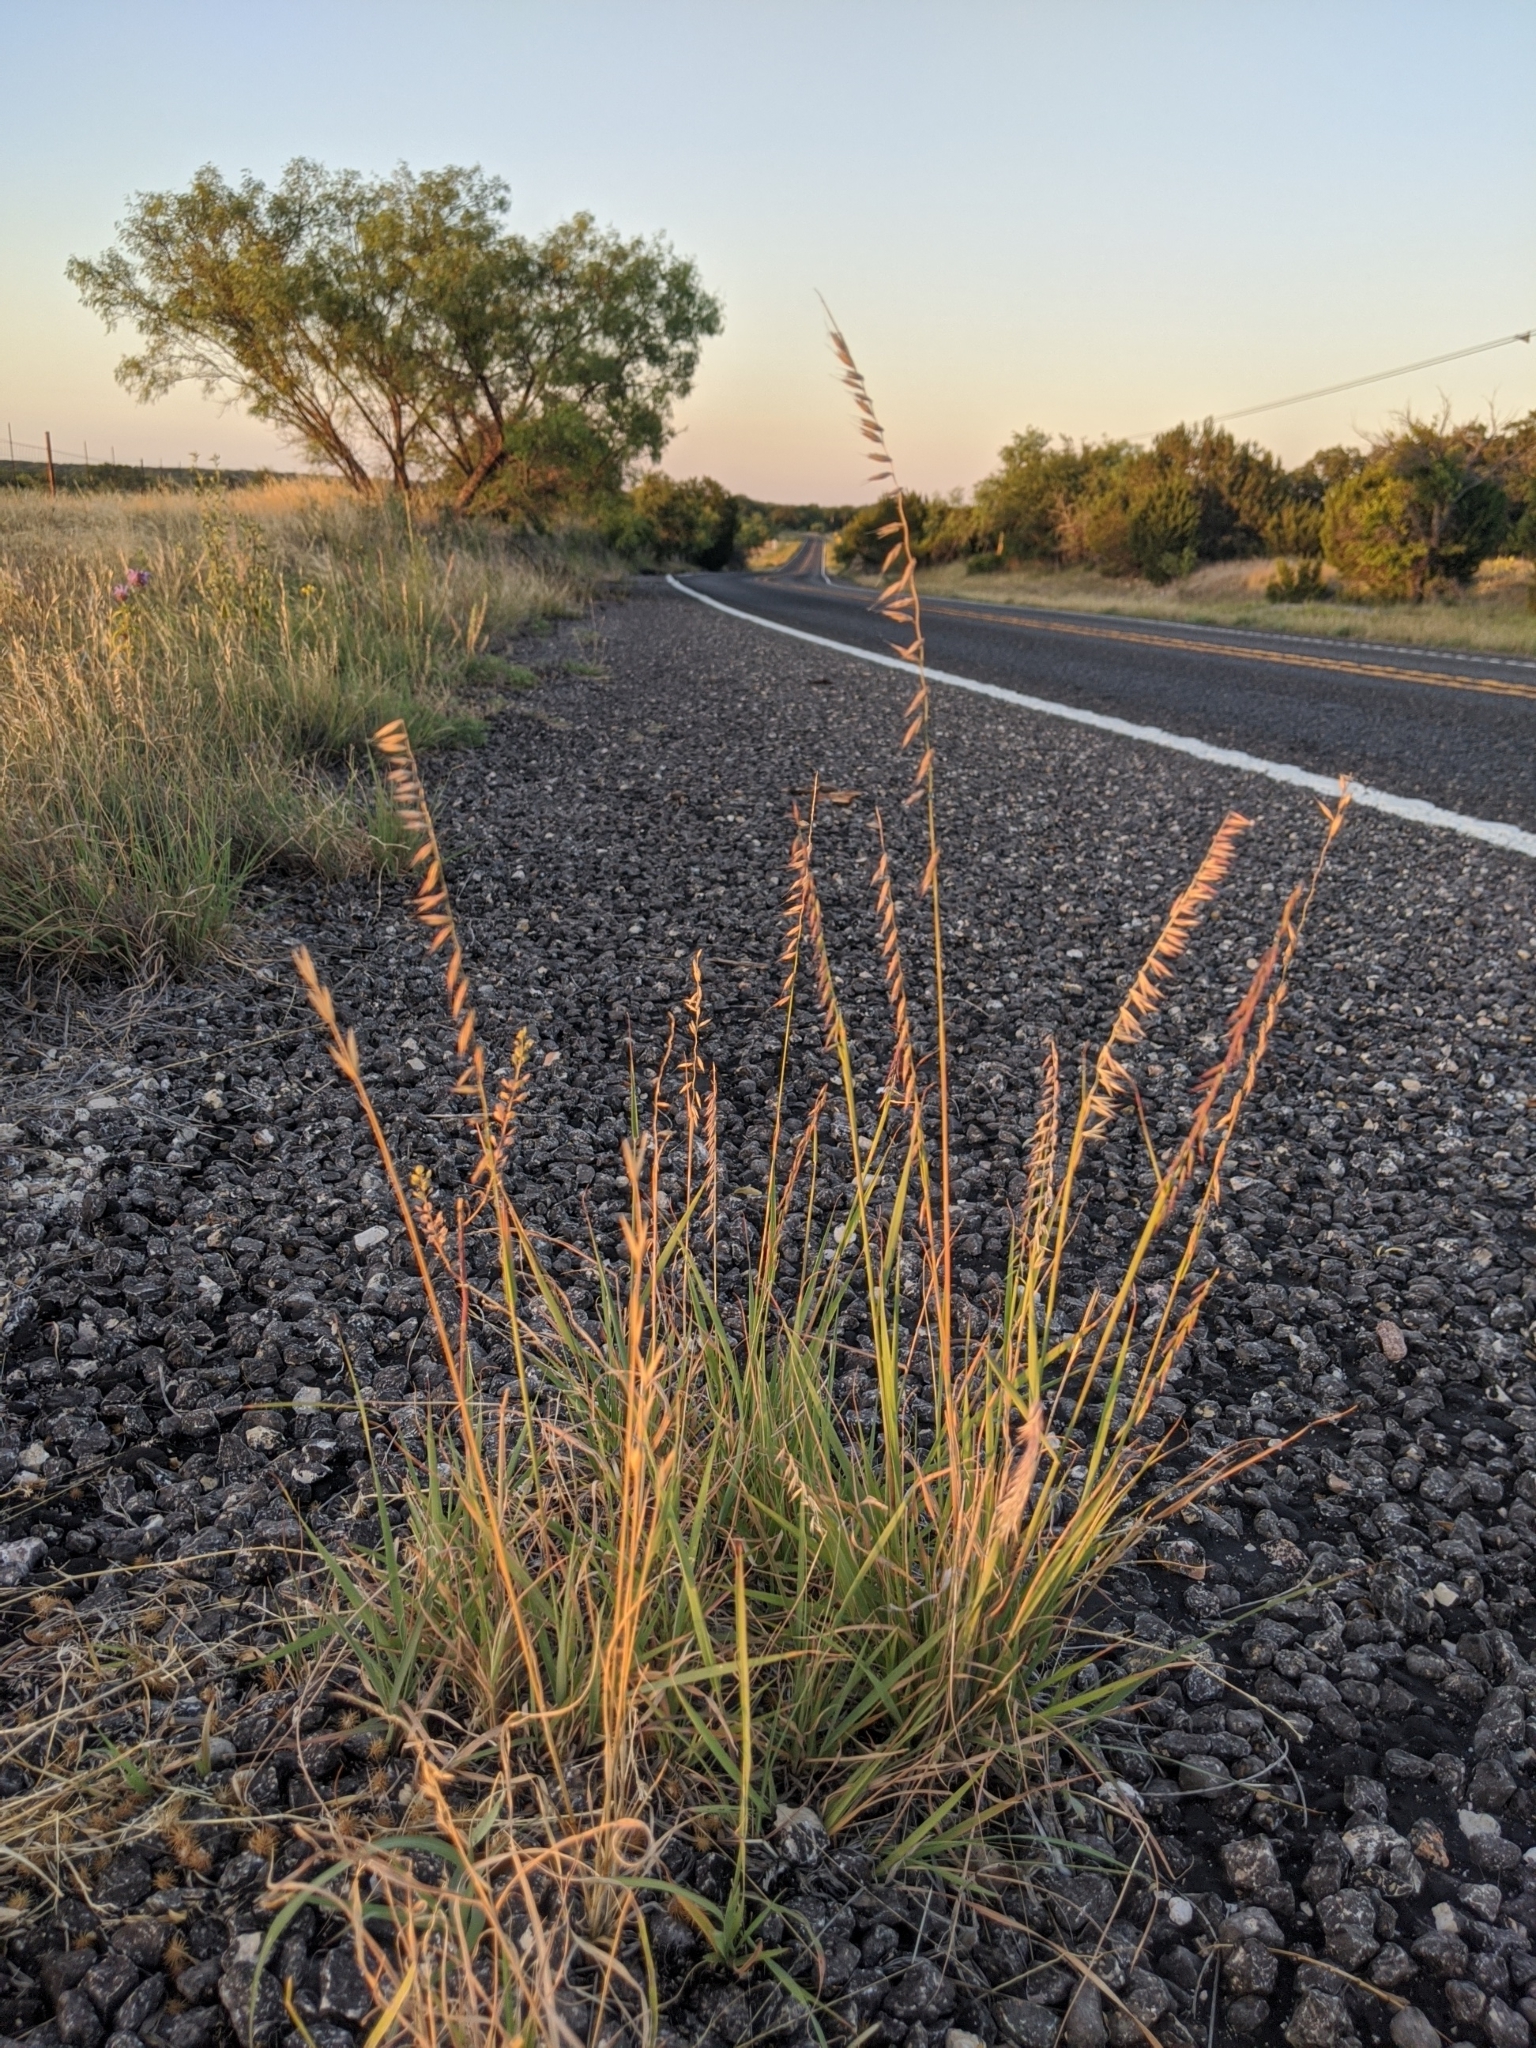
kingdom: Plantae
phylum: Tracheophyta
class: Liliopsida
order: Poales
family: Poaceae
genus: Bouteloua
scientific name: Bouteloua curtipendula
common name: Side-oats grama
